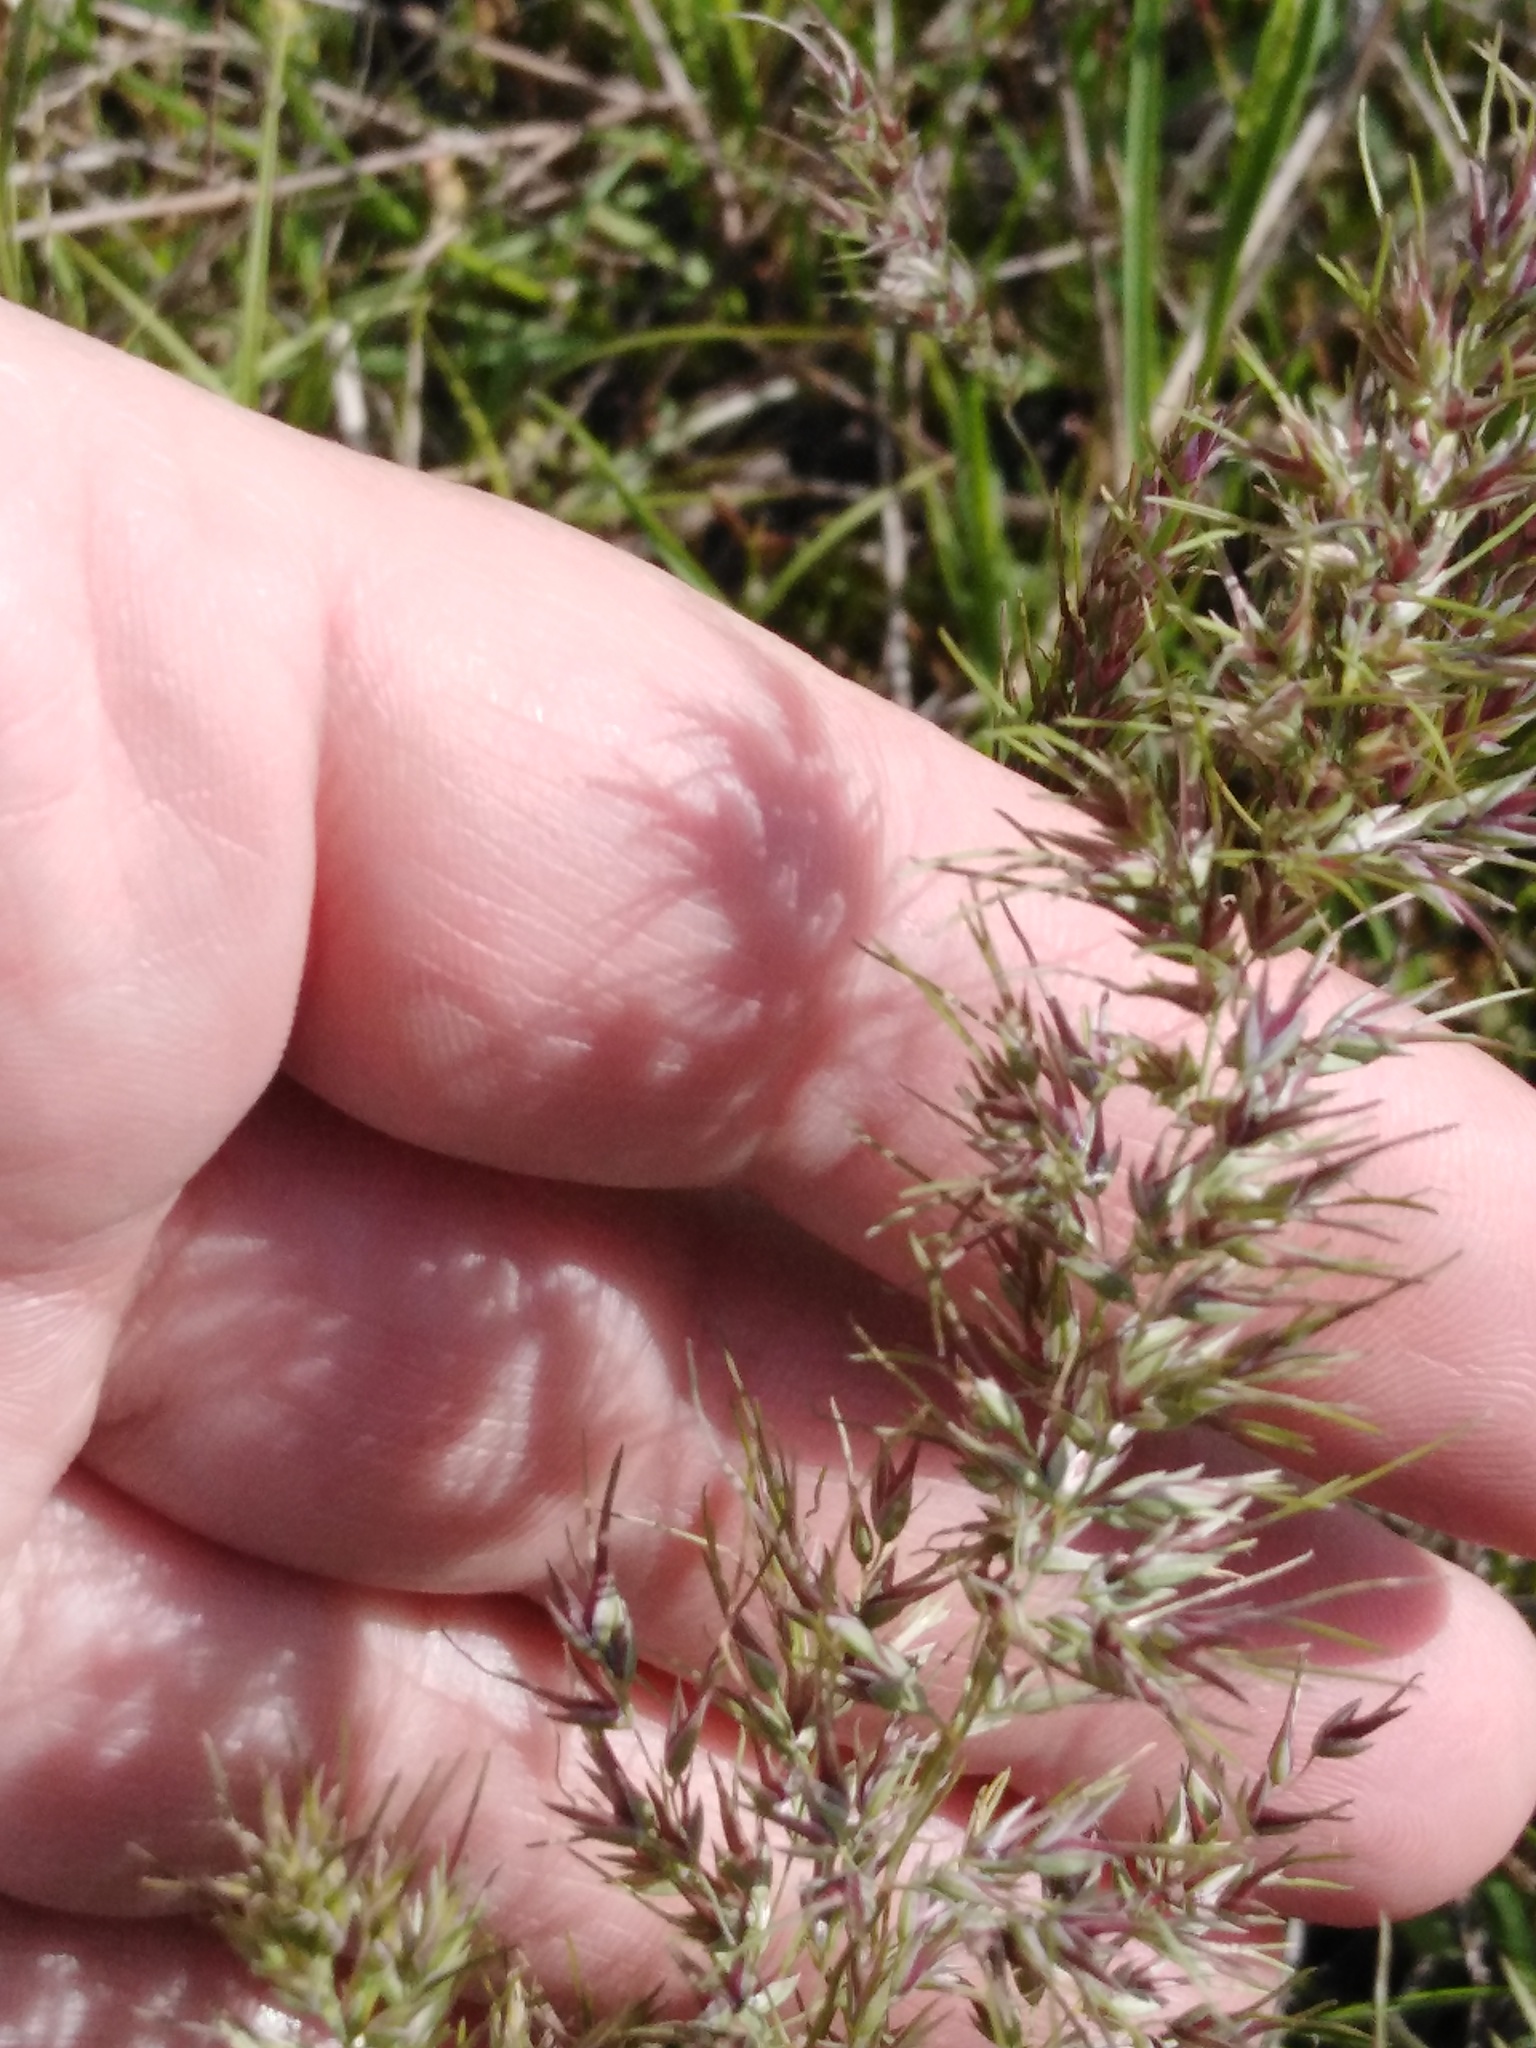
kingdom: Plantae
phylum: Tracheophyta
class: Liliopsida
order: Poales
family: Poaceae
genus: Poa
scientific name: Poa bulbosa
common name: Bulbous bluegrass
